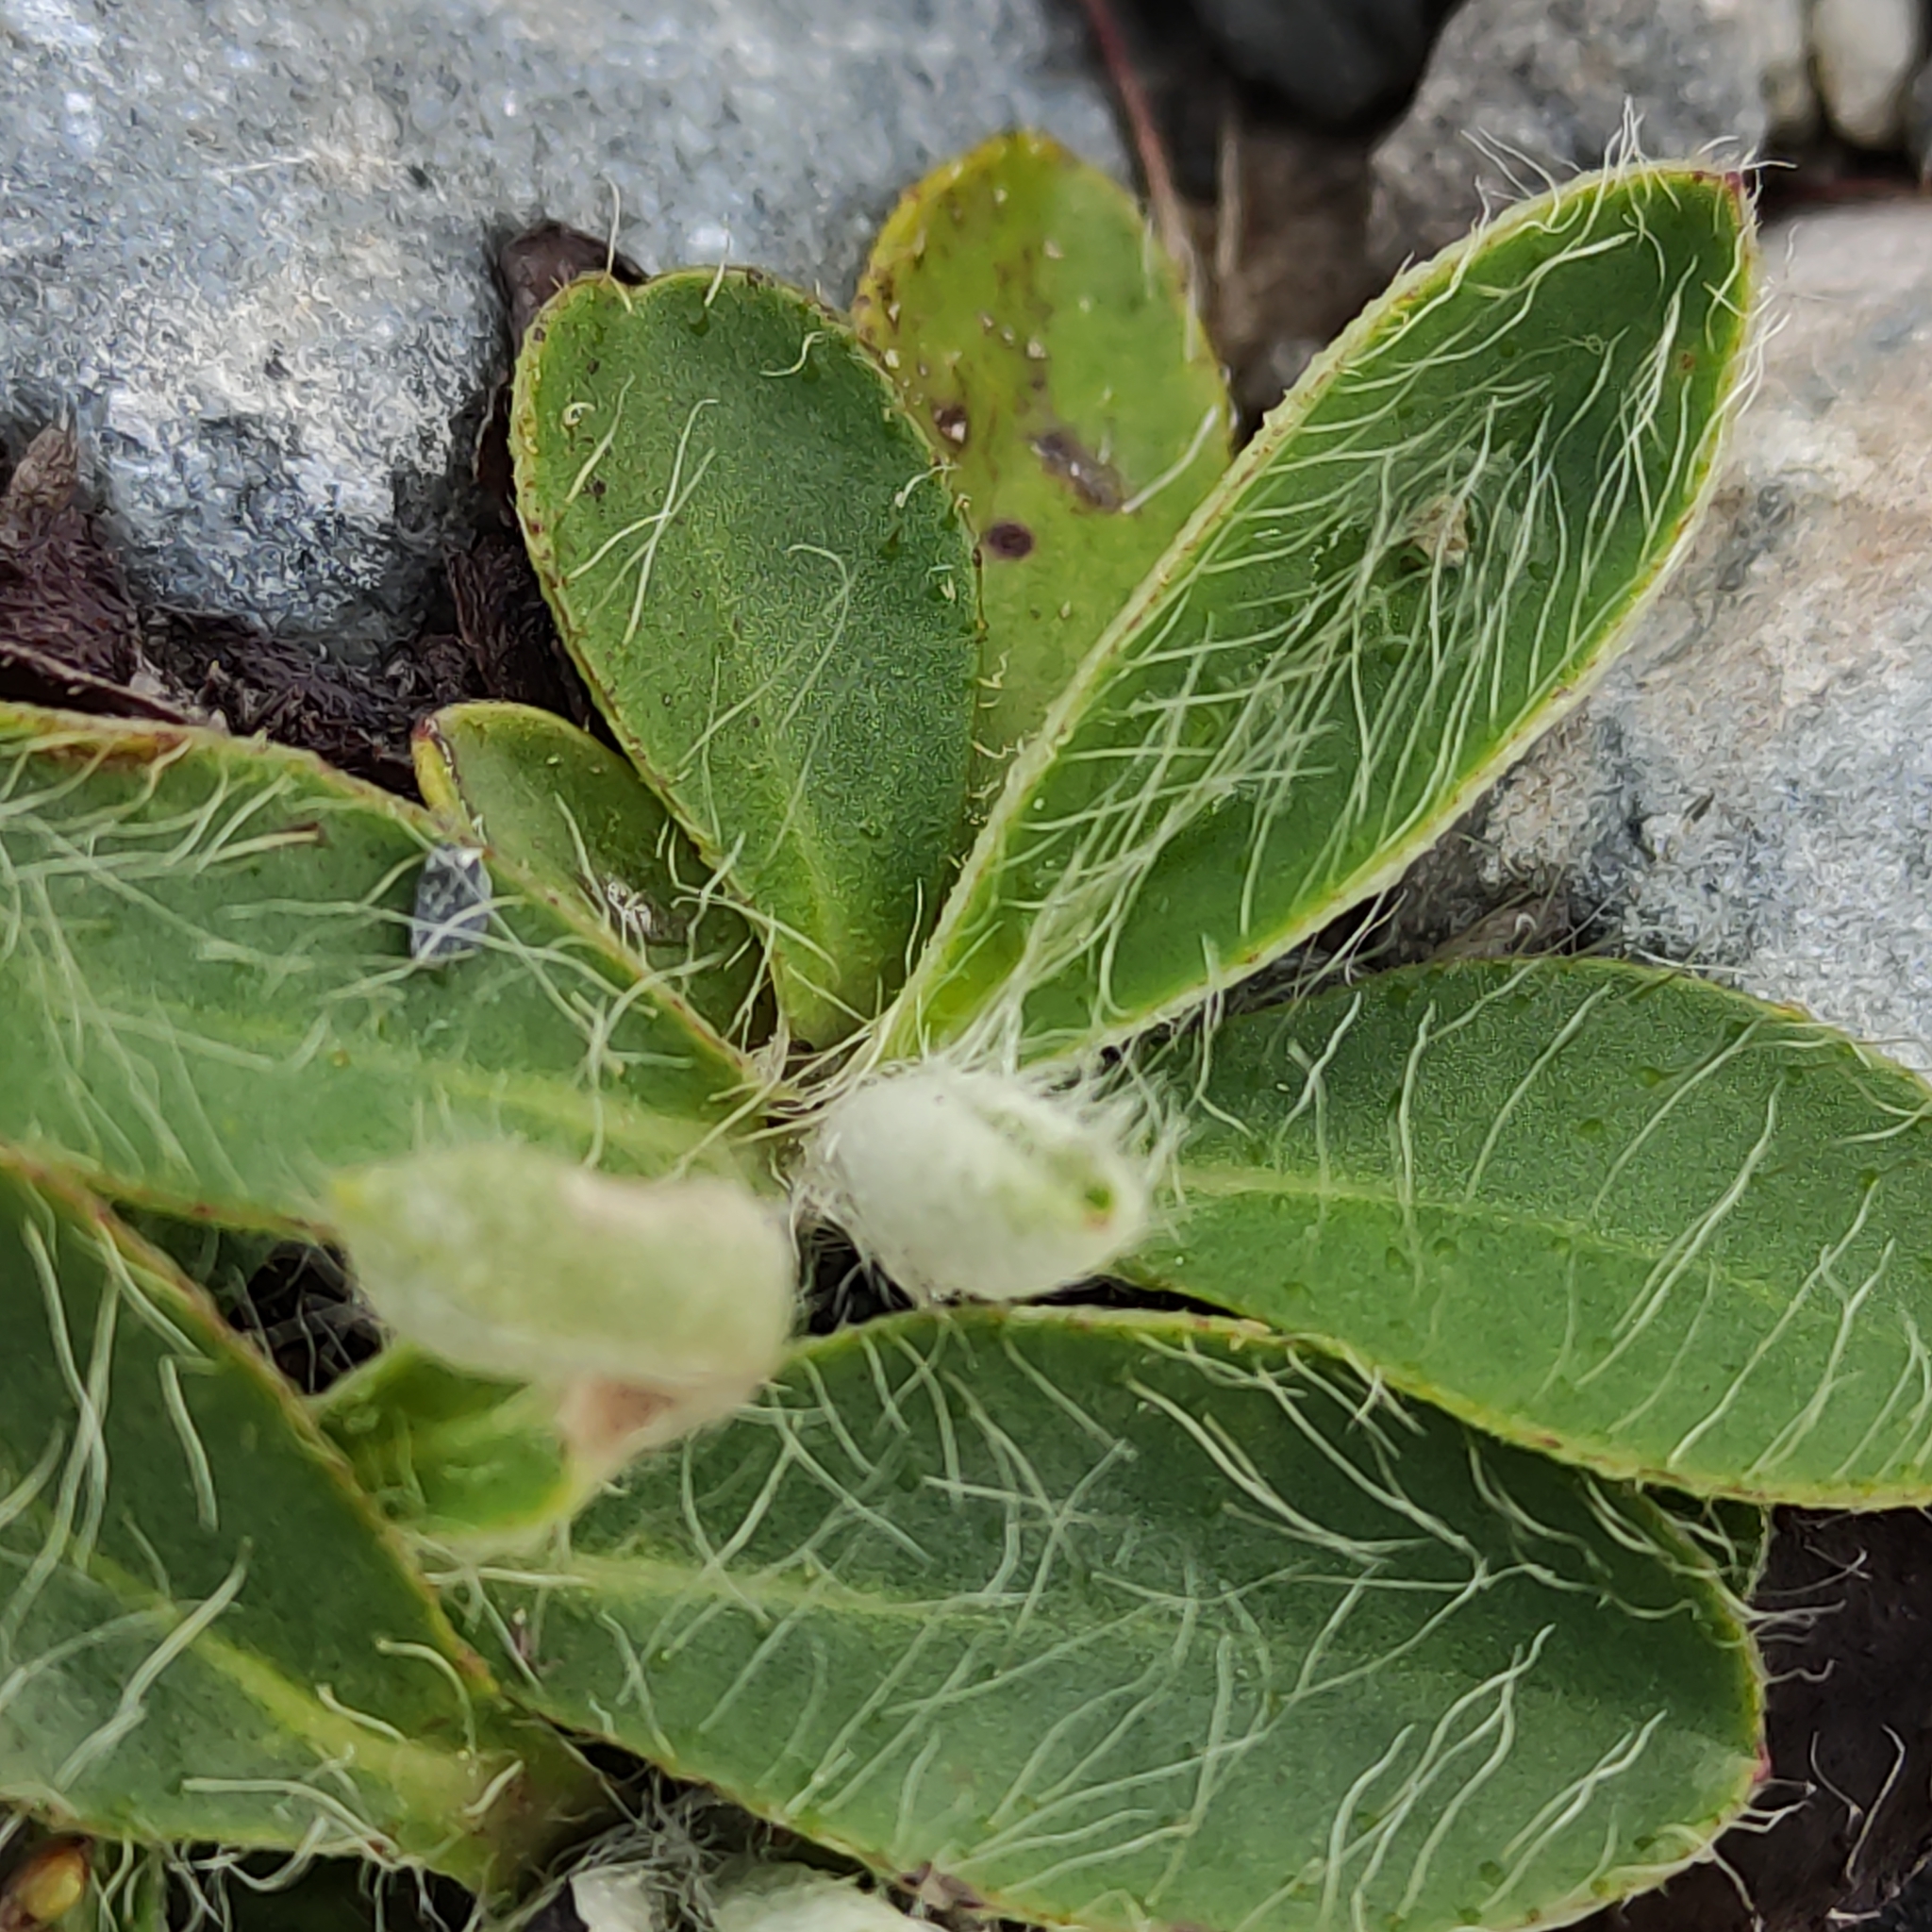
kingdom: Plantae
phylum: Tracheophyta
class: Magnoliopsida
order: Asterales
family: Asteraceae
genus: Pilosella
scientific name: Pilosella officinarum
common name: Mouse-ear hawkweed
